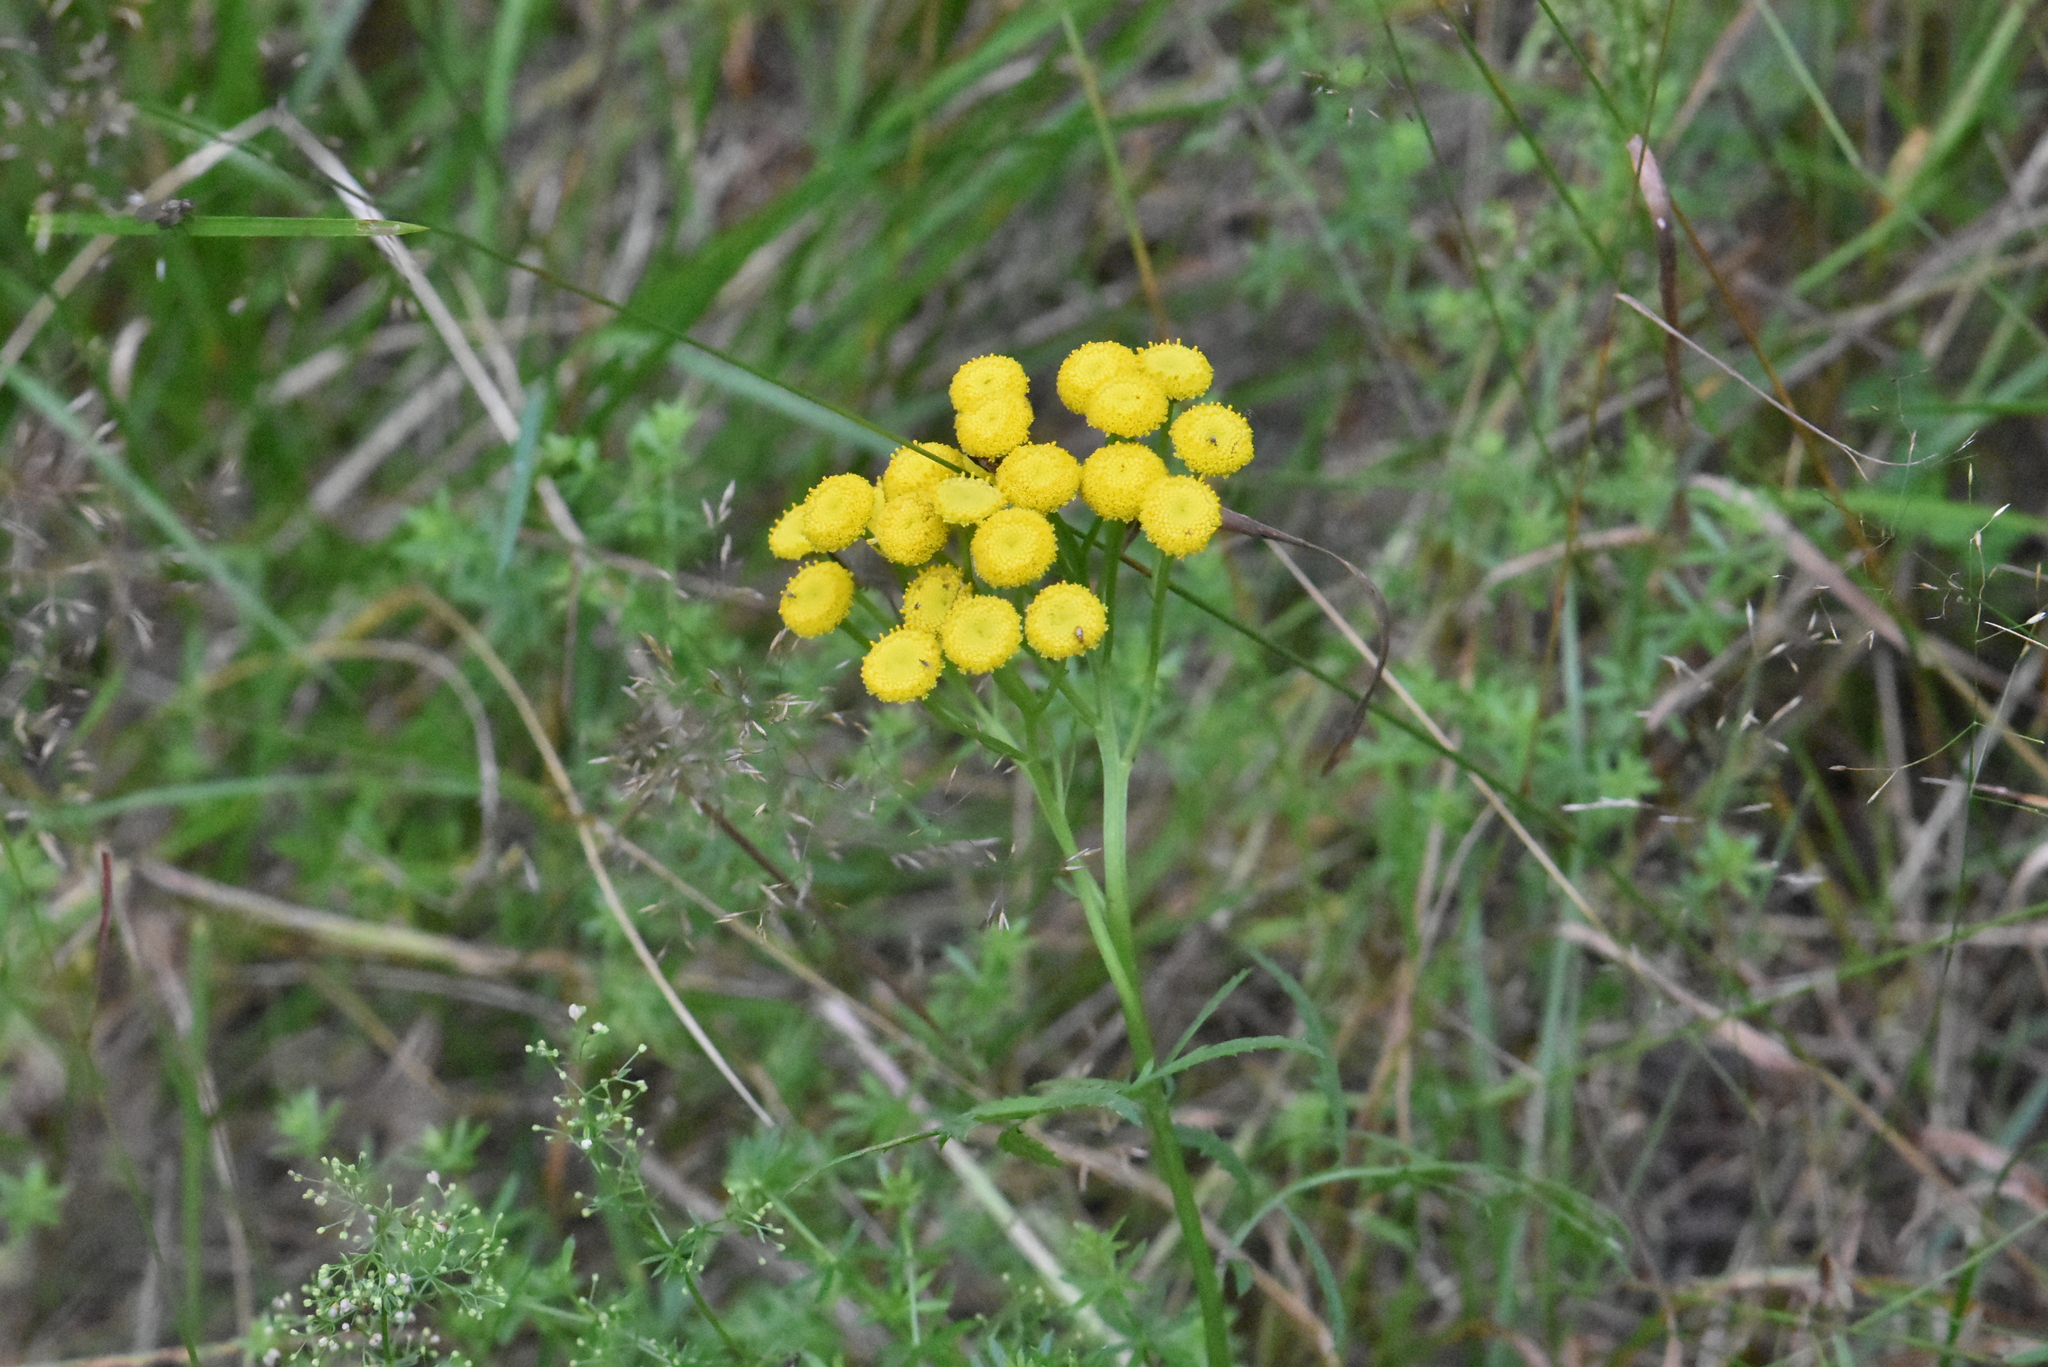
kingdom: Plantae
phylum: Tracheophyta
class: Magnoliopsida
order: Asterales
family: Asteraceae
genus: Tanacetum
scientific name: Tanacetum vulgare
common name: Common tansy
